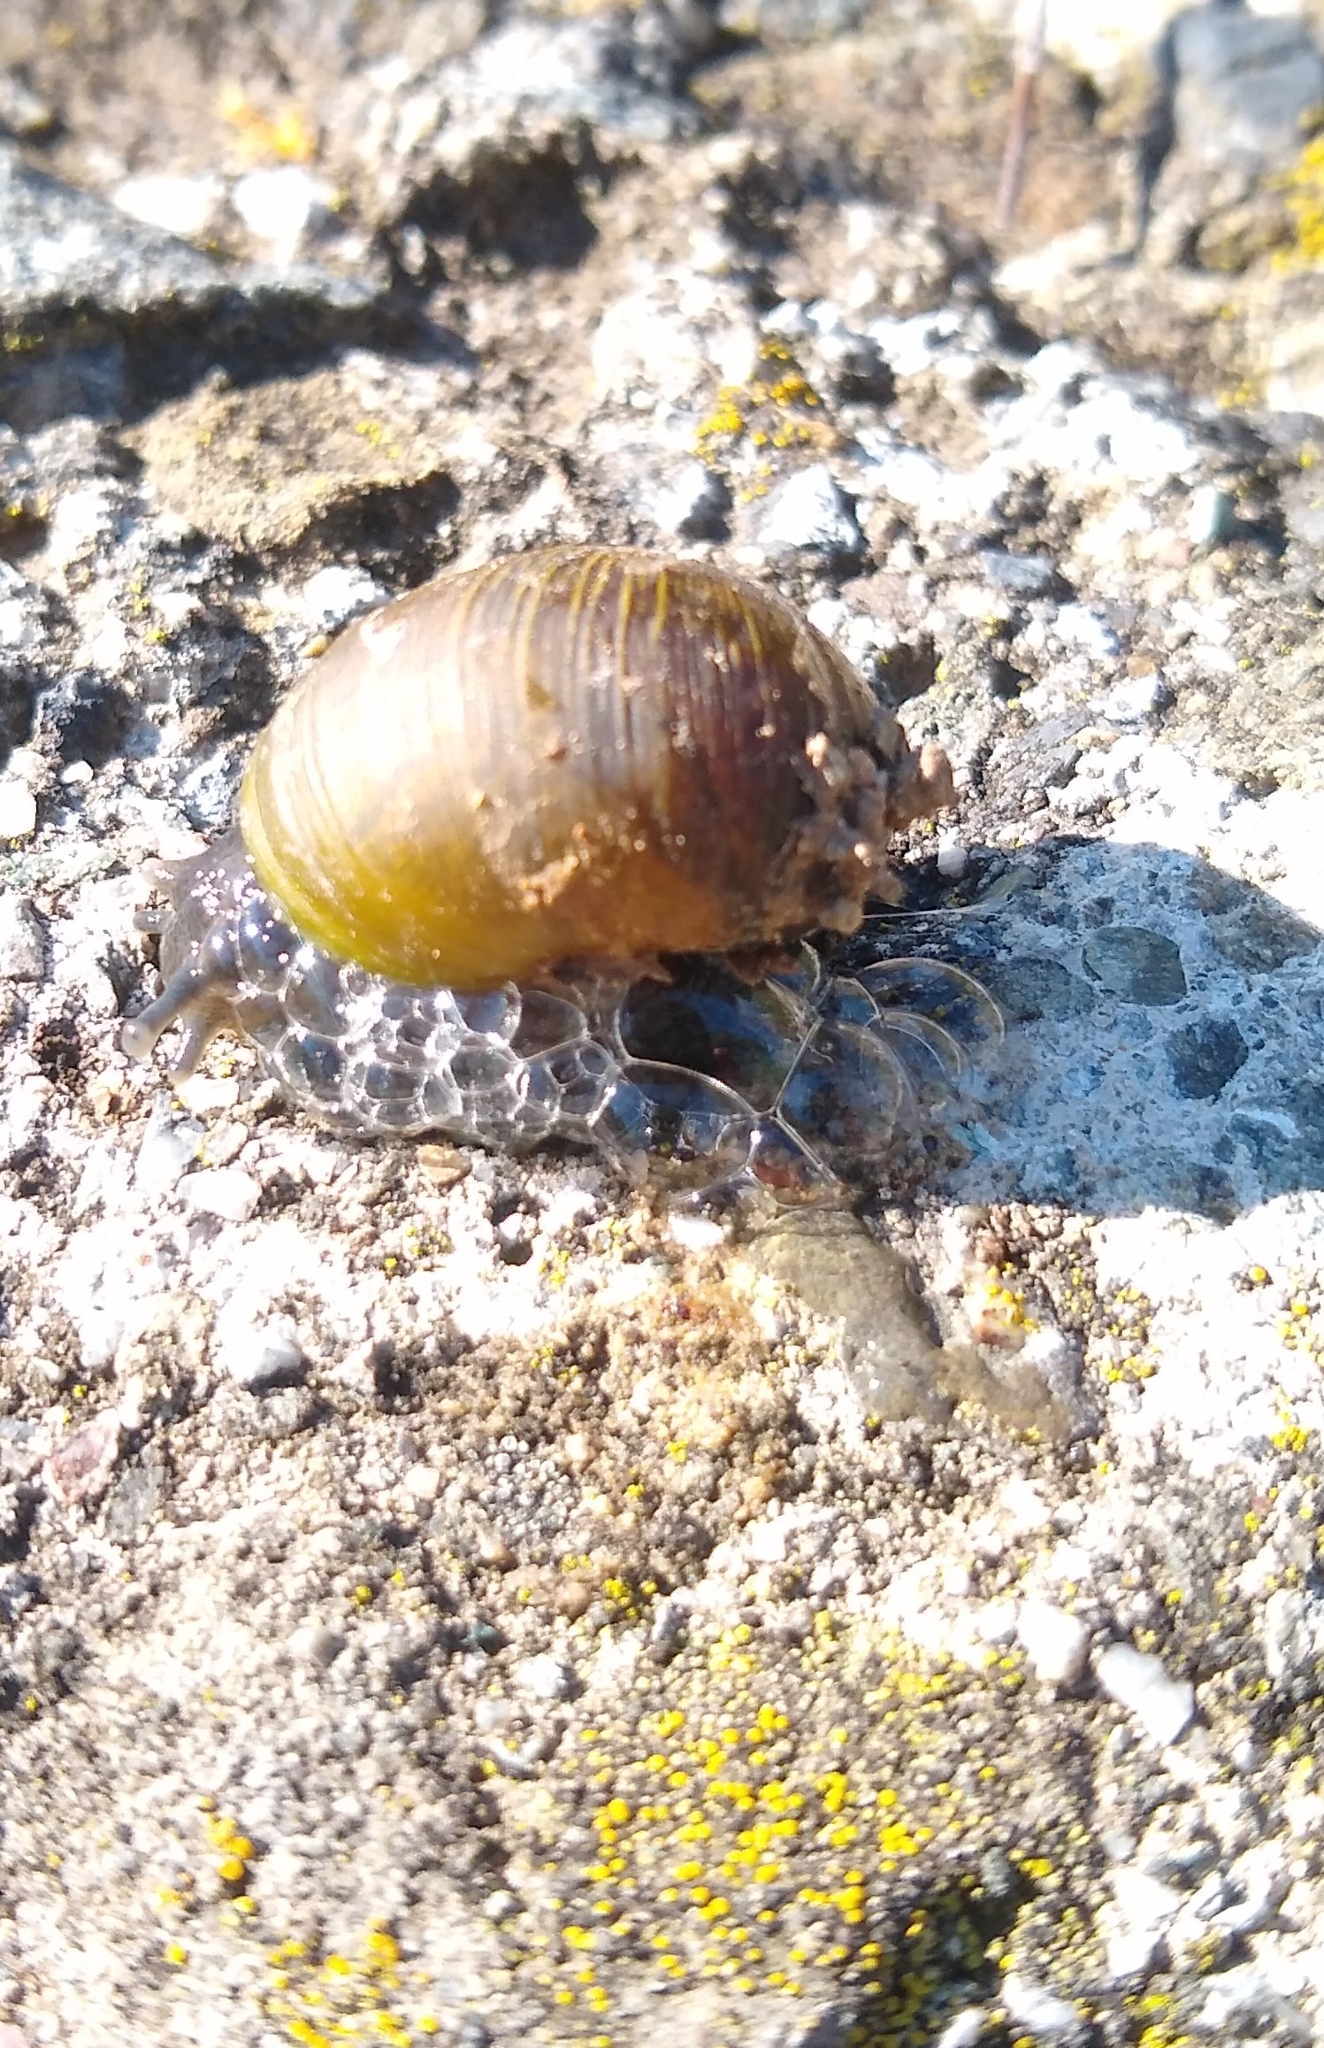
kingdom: Animalia
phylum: Mollusca
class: Gastropoda
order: Stylommatophora
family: Helicidae
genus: Cantareus
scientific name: Cantareus apertus
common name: Green gardensnail
